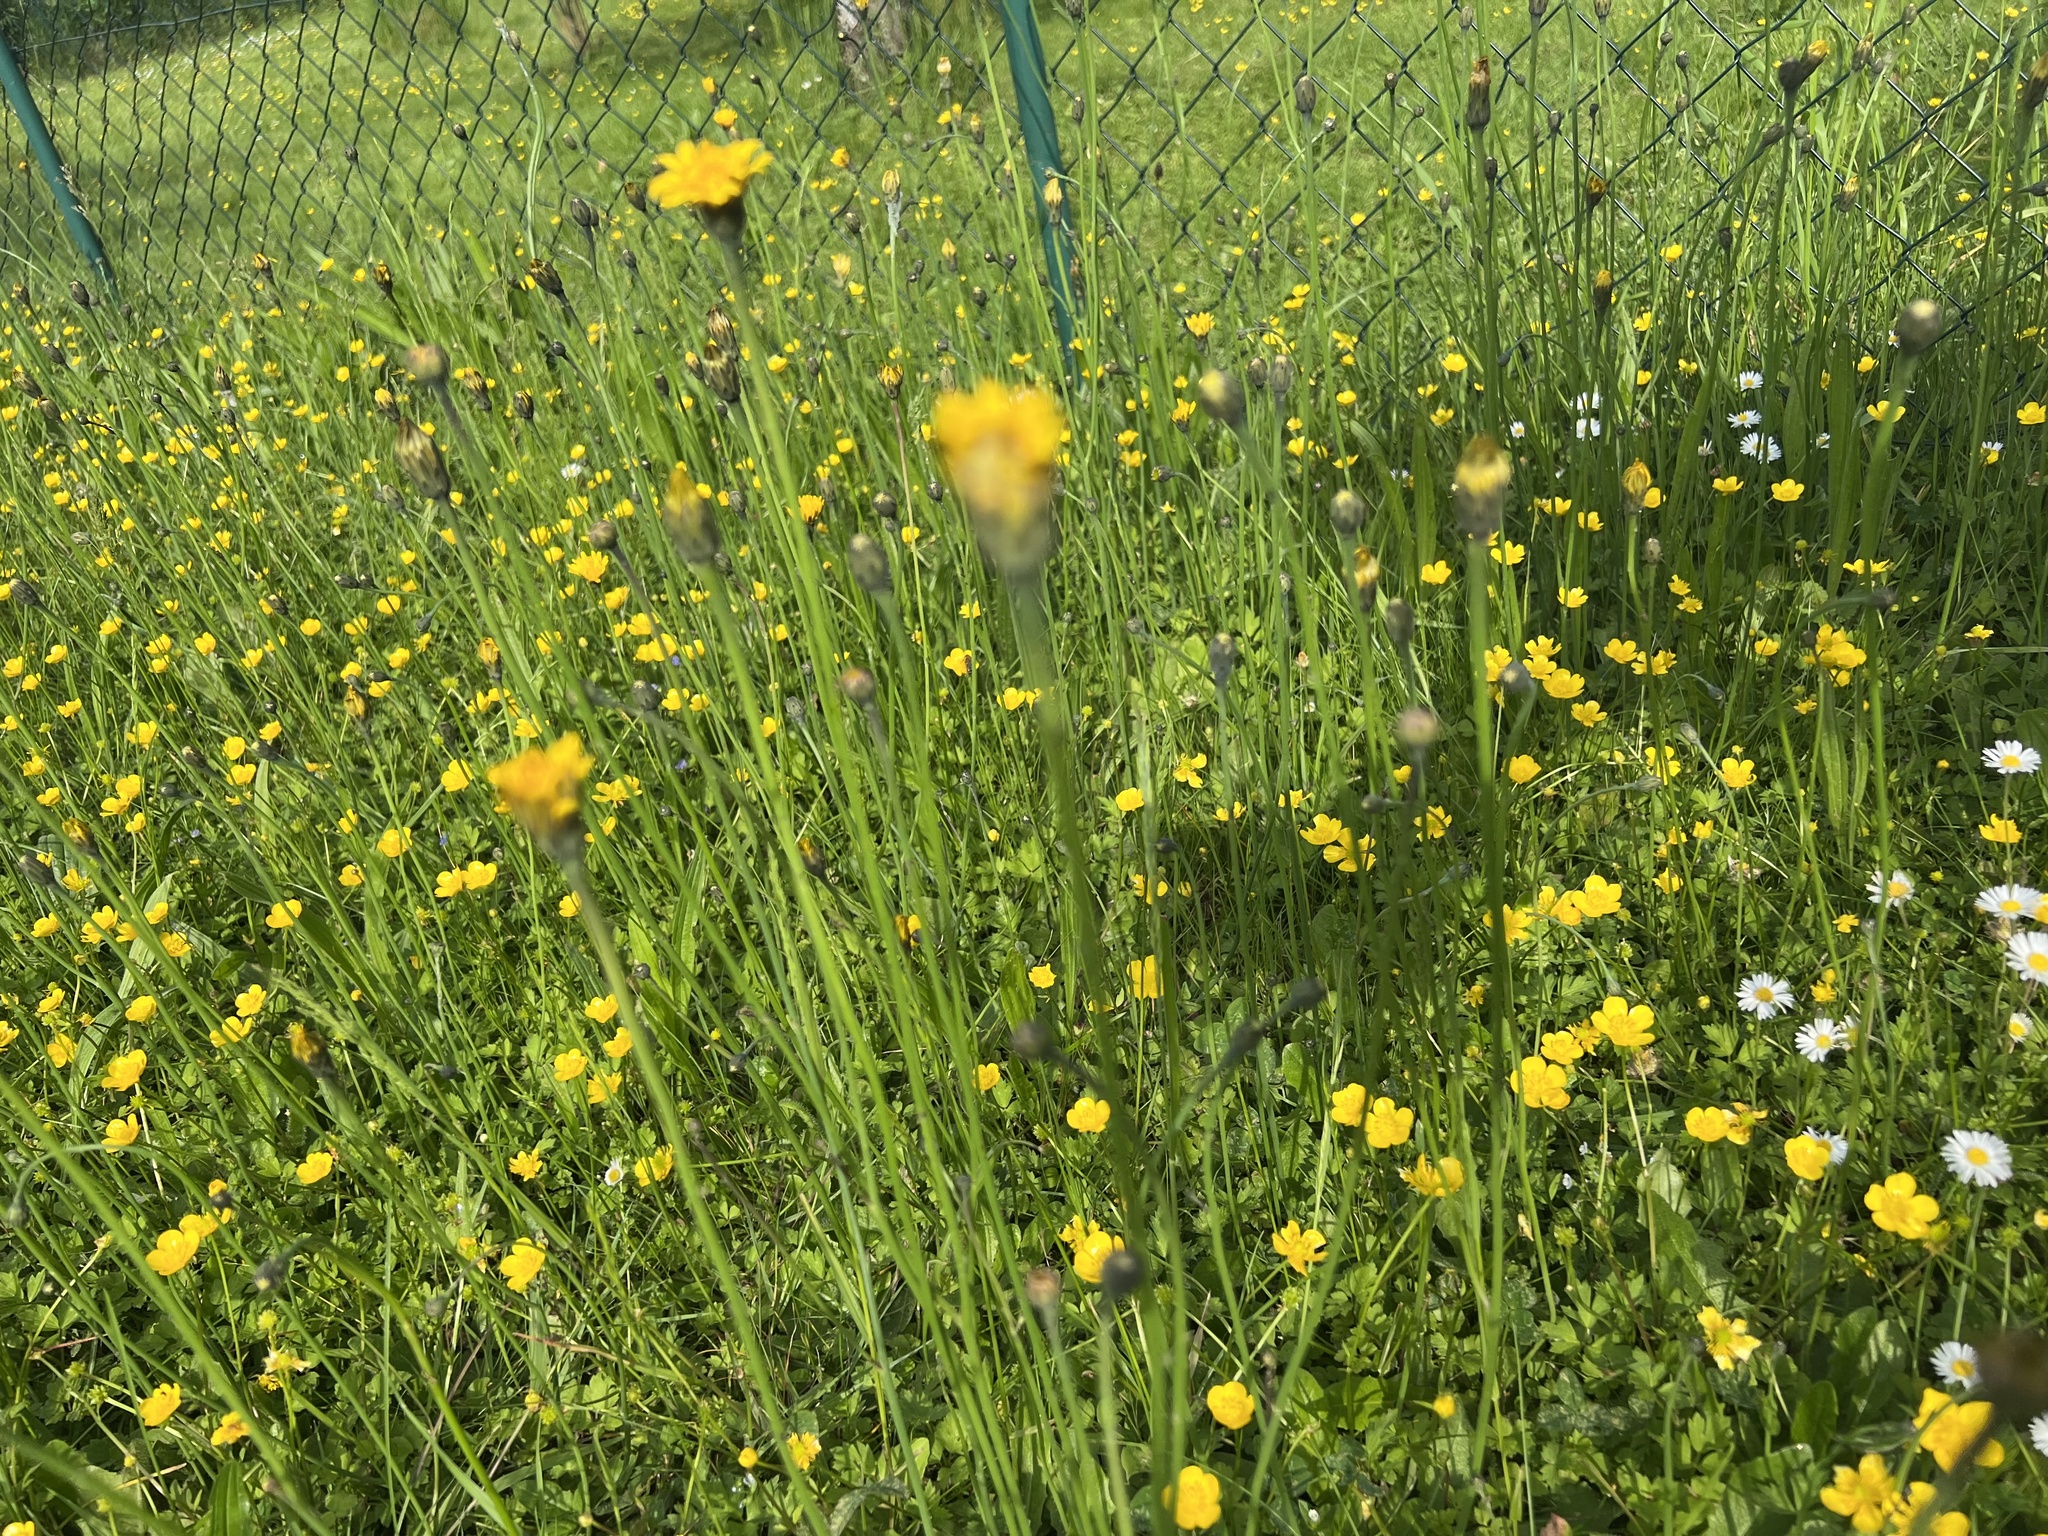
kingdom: Plantae
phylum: Tracheophyta
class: Magnoliopsida
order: Asterales
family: Asteraceae
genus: Hypochaeris
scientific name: Hypochaeris radicata
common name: Flatweed
